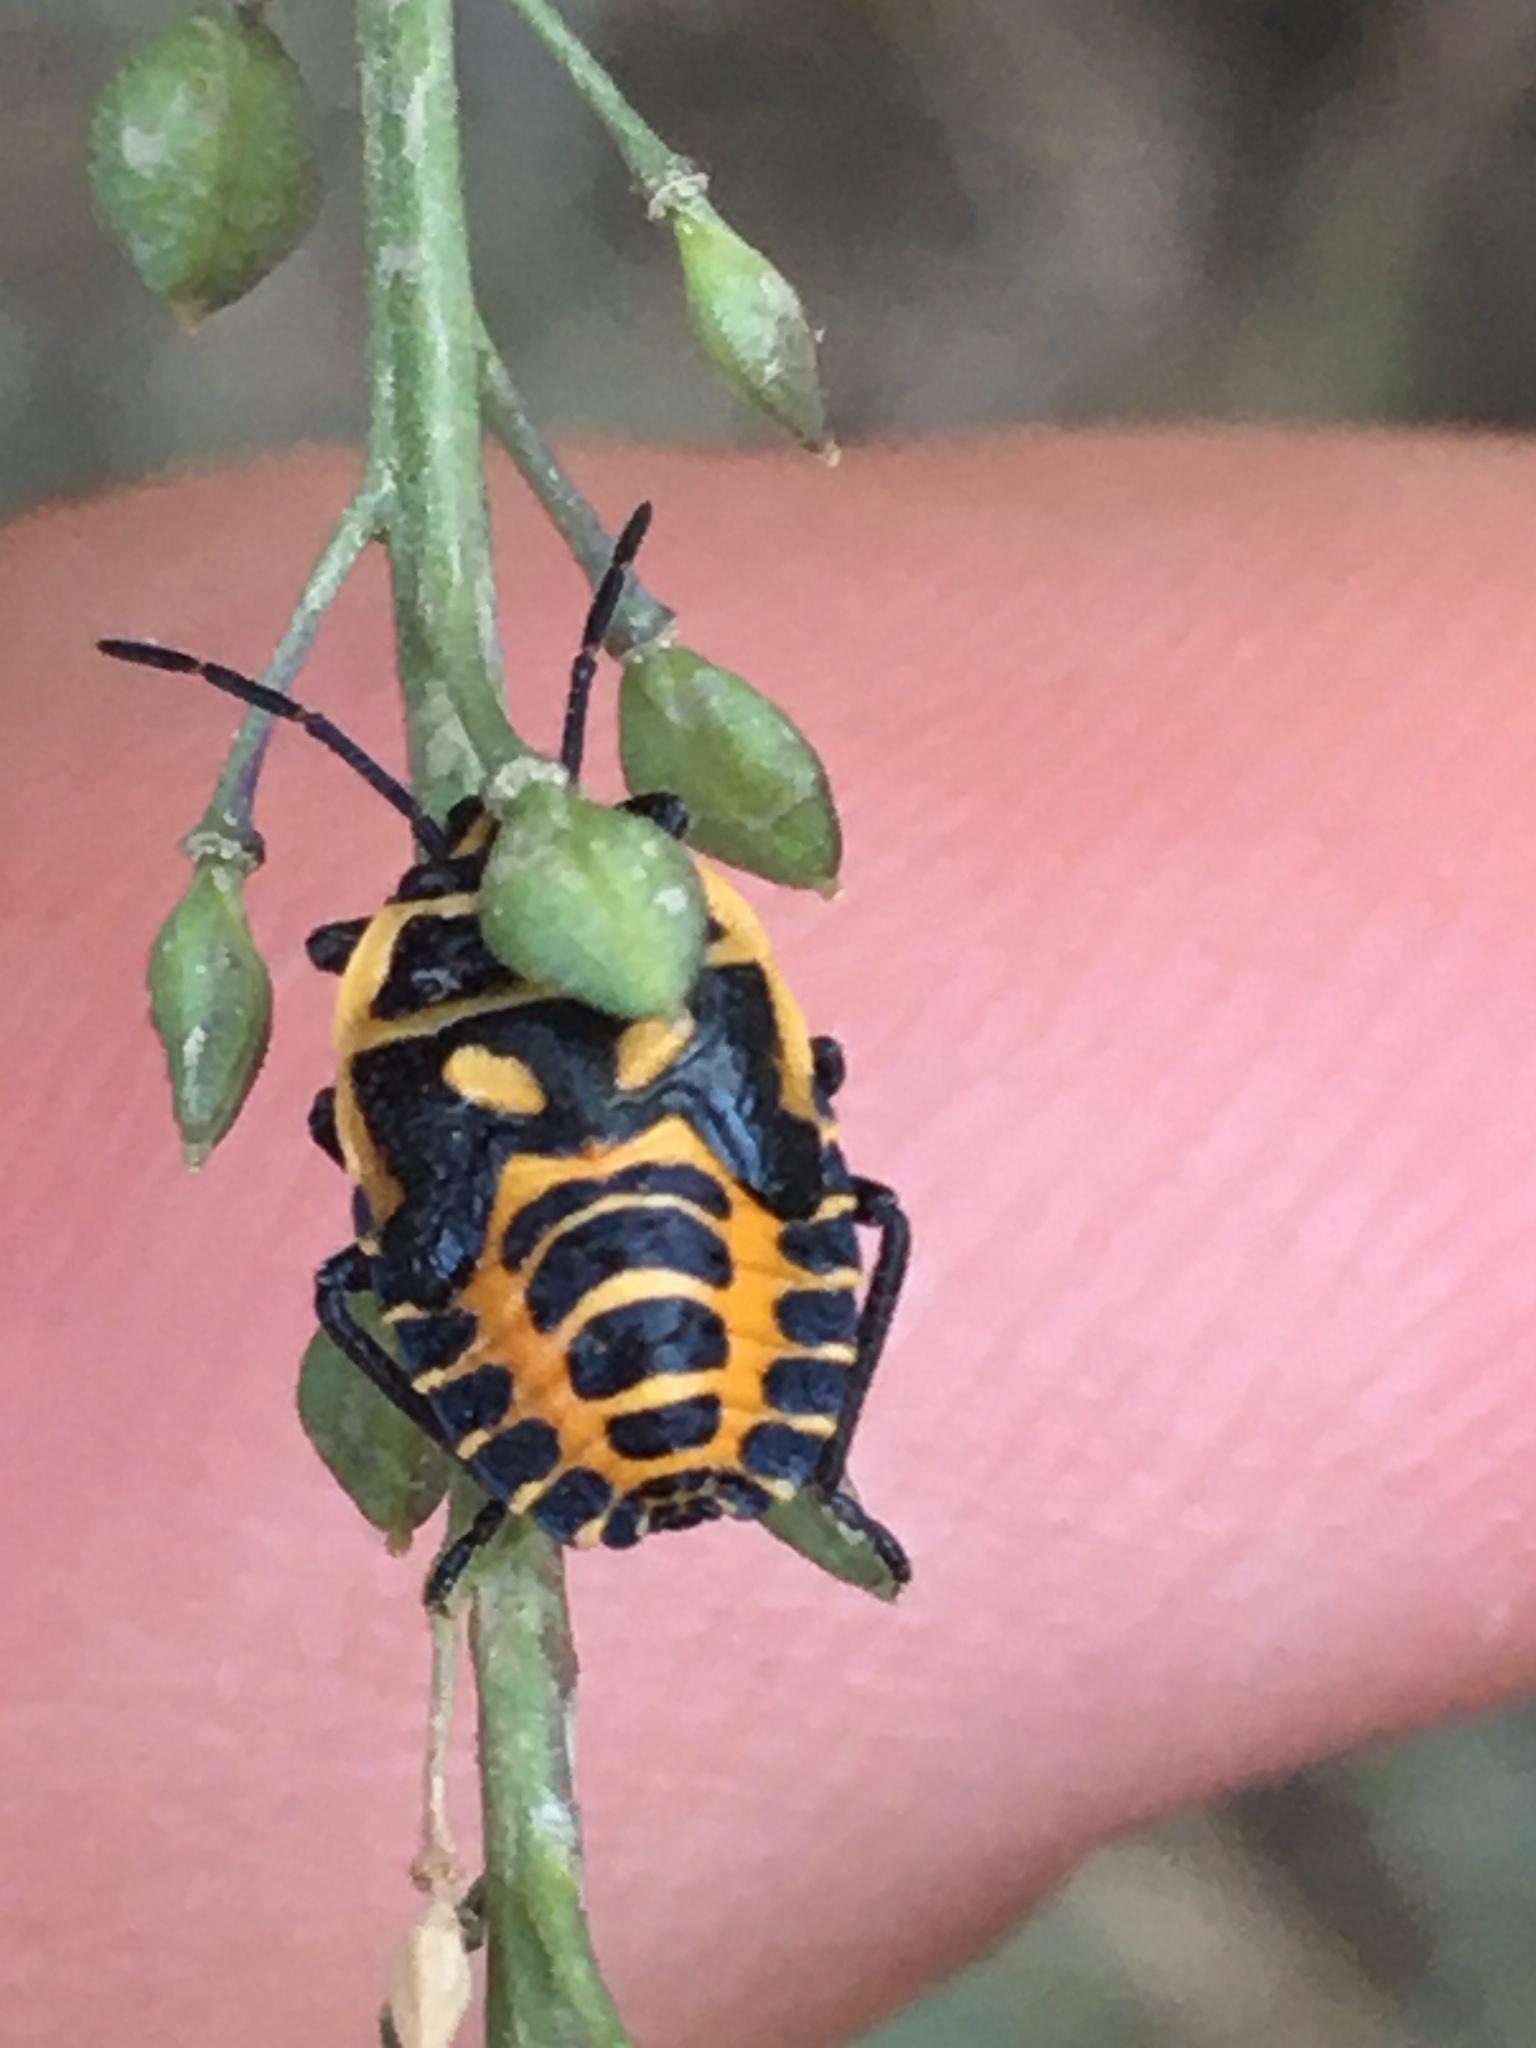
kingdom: Animalia
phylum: Arthropoda
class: Insecta
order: Hemiptera
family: Pentatomidae
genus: Eurydema
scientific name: Eurydema ventralis
